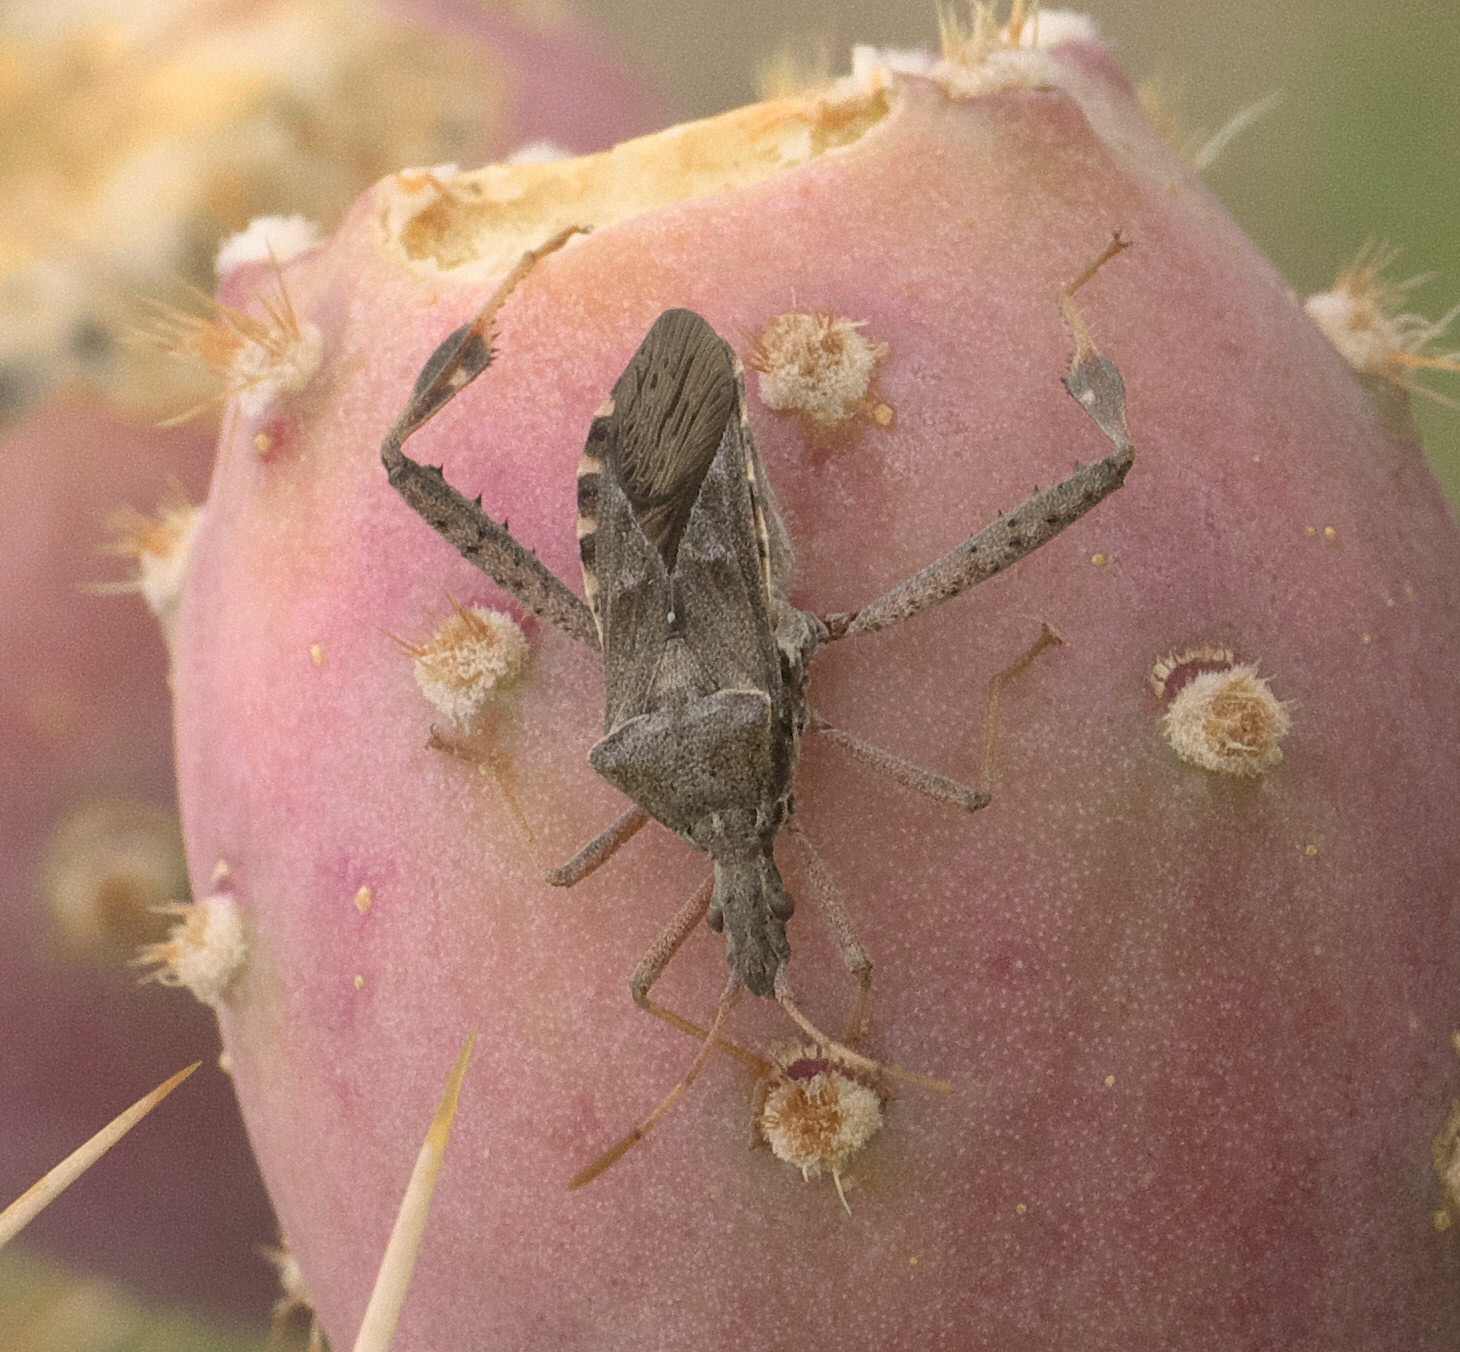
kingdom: Animalia
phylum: Arthropoda
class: Insecta
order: Hemiptera
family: Coreidae
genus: Narnia
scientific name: Narnia femorata
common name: Leaf-footed cactus bug
